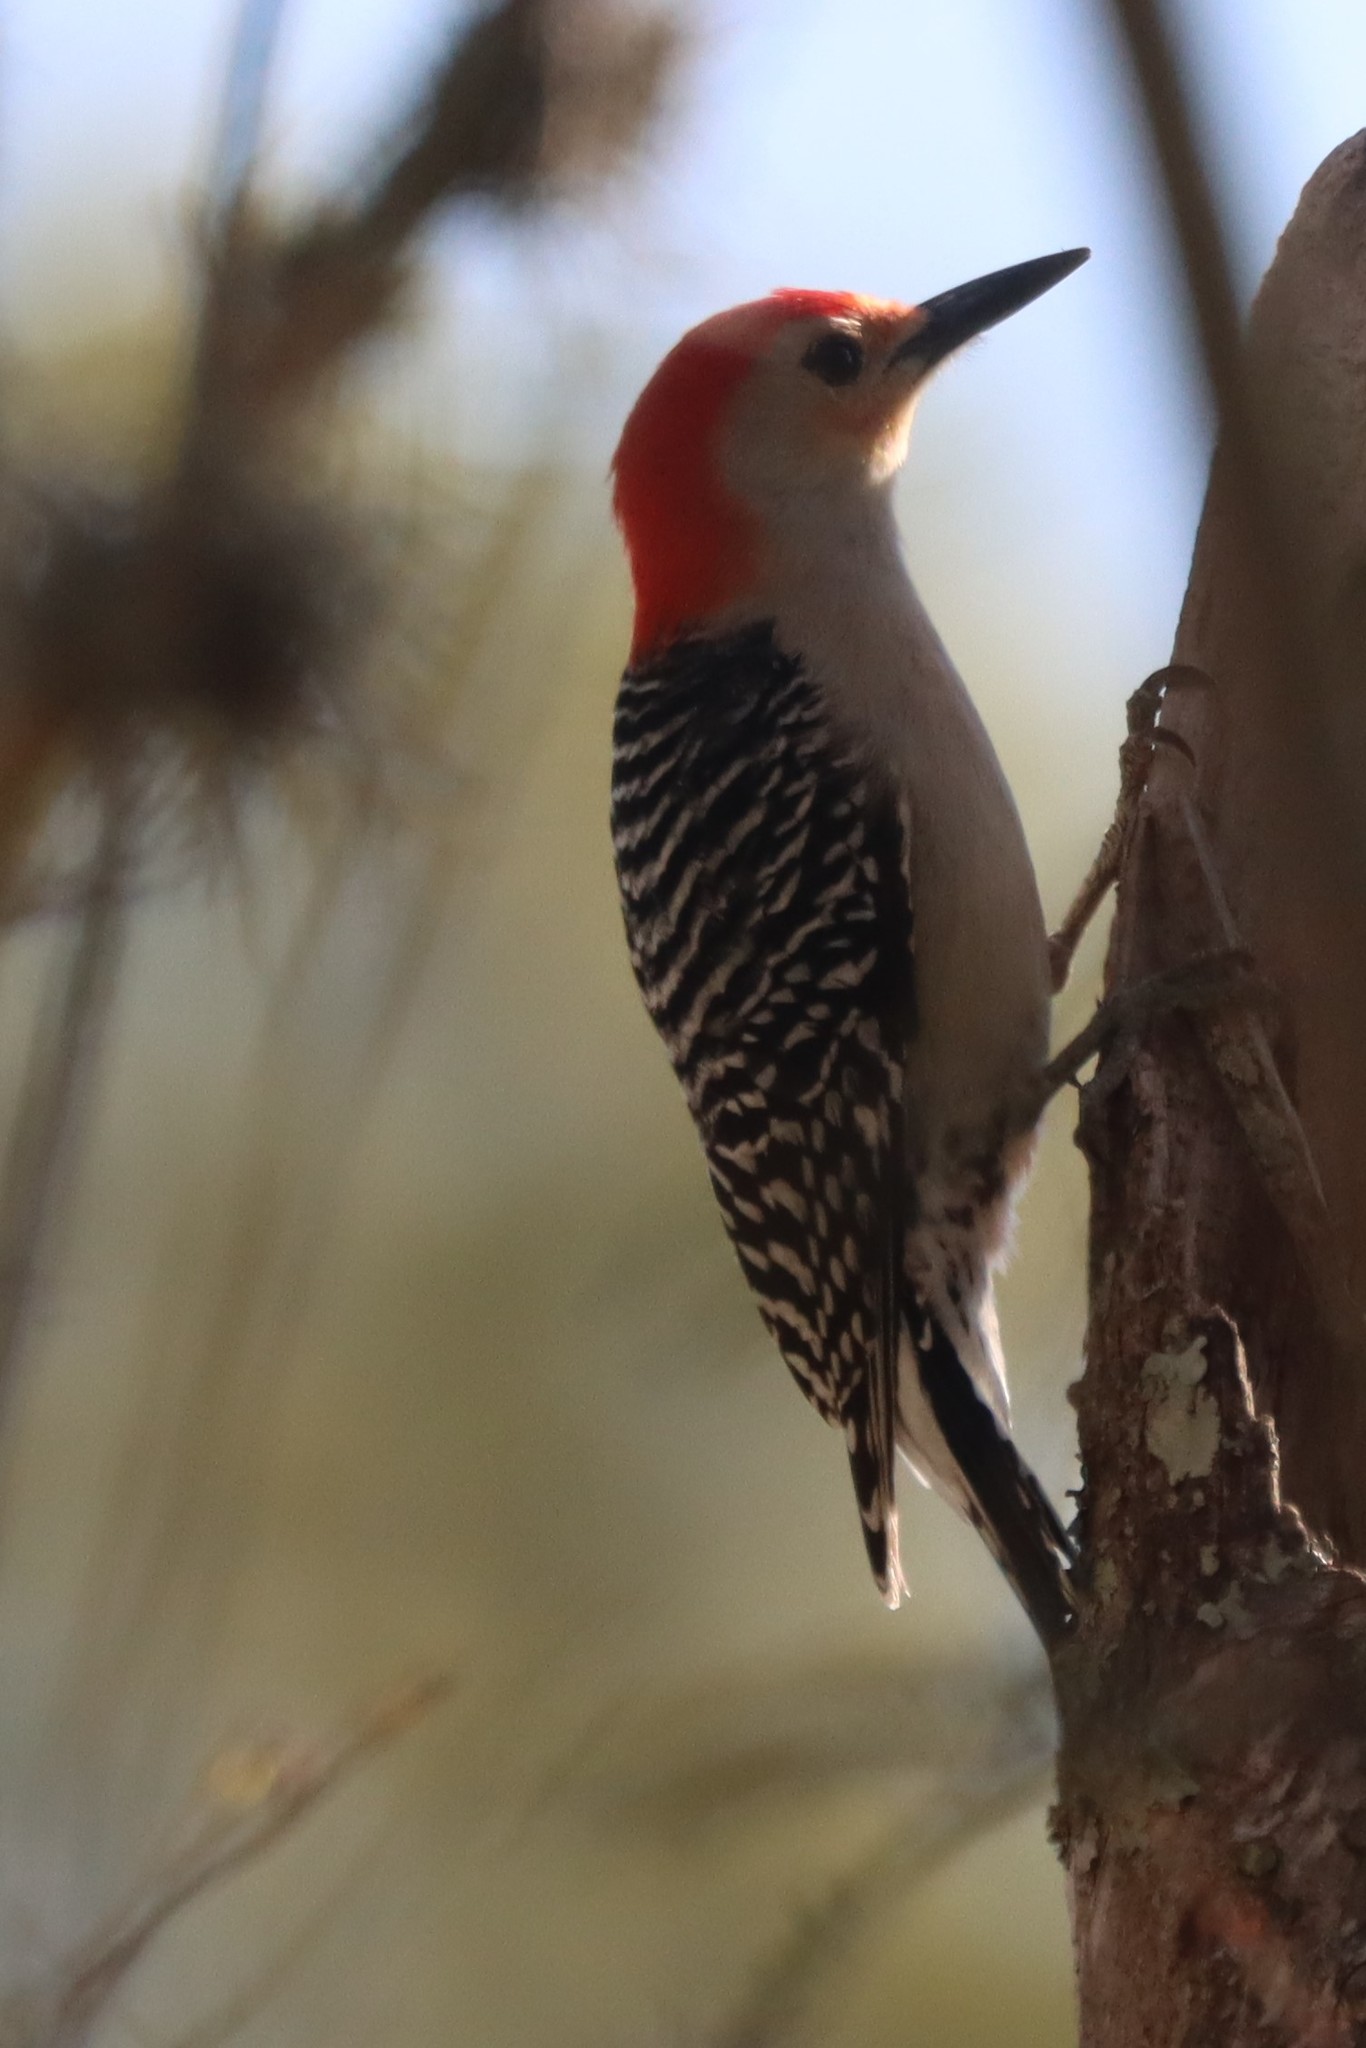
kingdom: Animalia
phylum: Chordata
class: Aves
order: Piciformes
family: Picidae
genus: Melanerpes
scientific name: Melanerpes carolinus
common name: Red-bellied woodpecker
